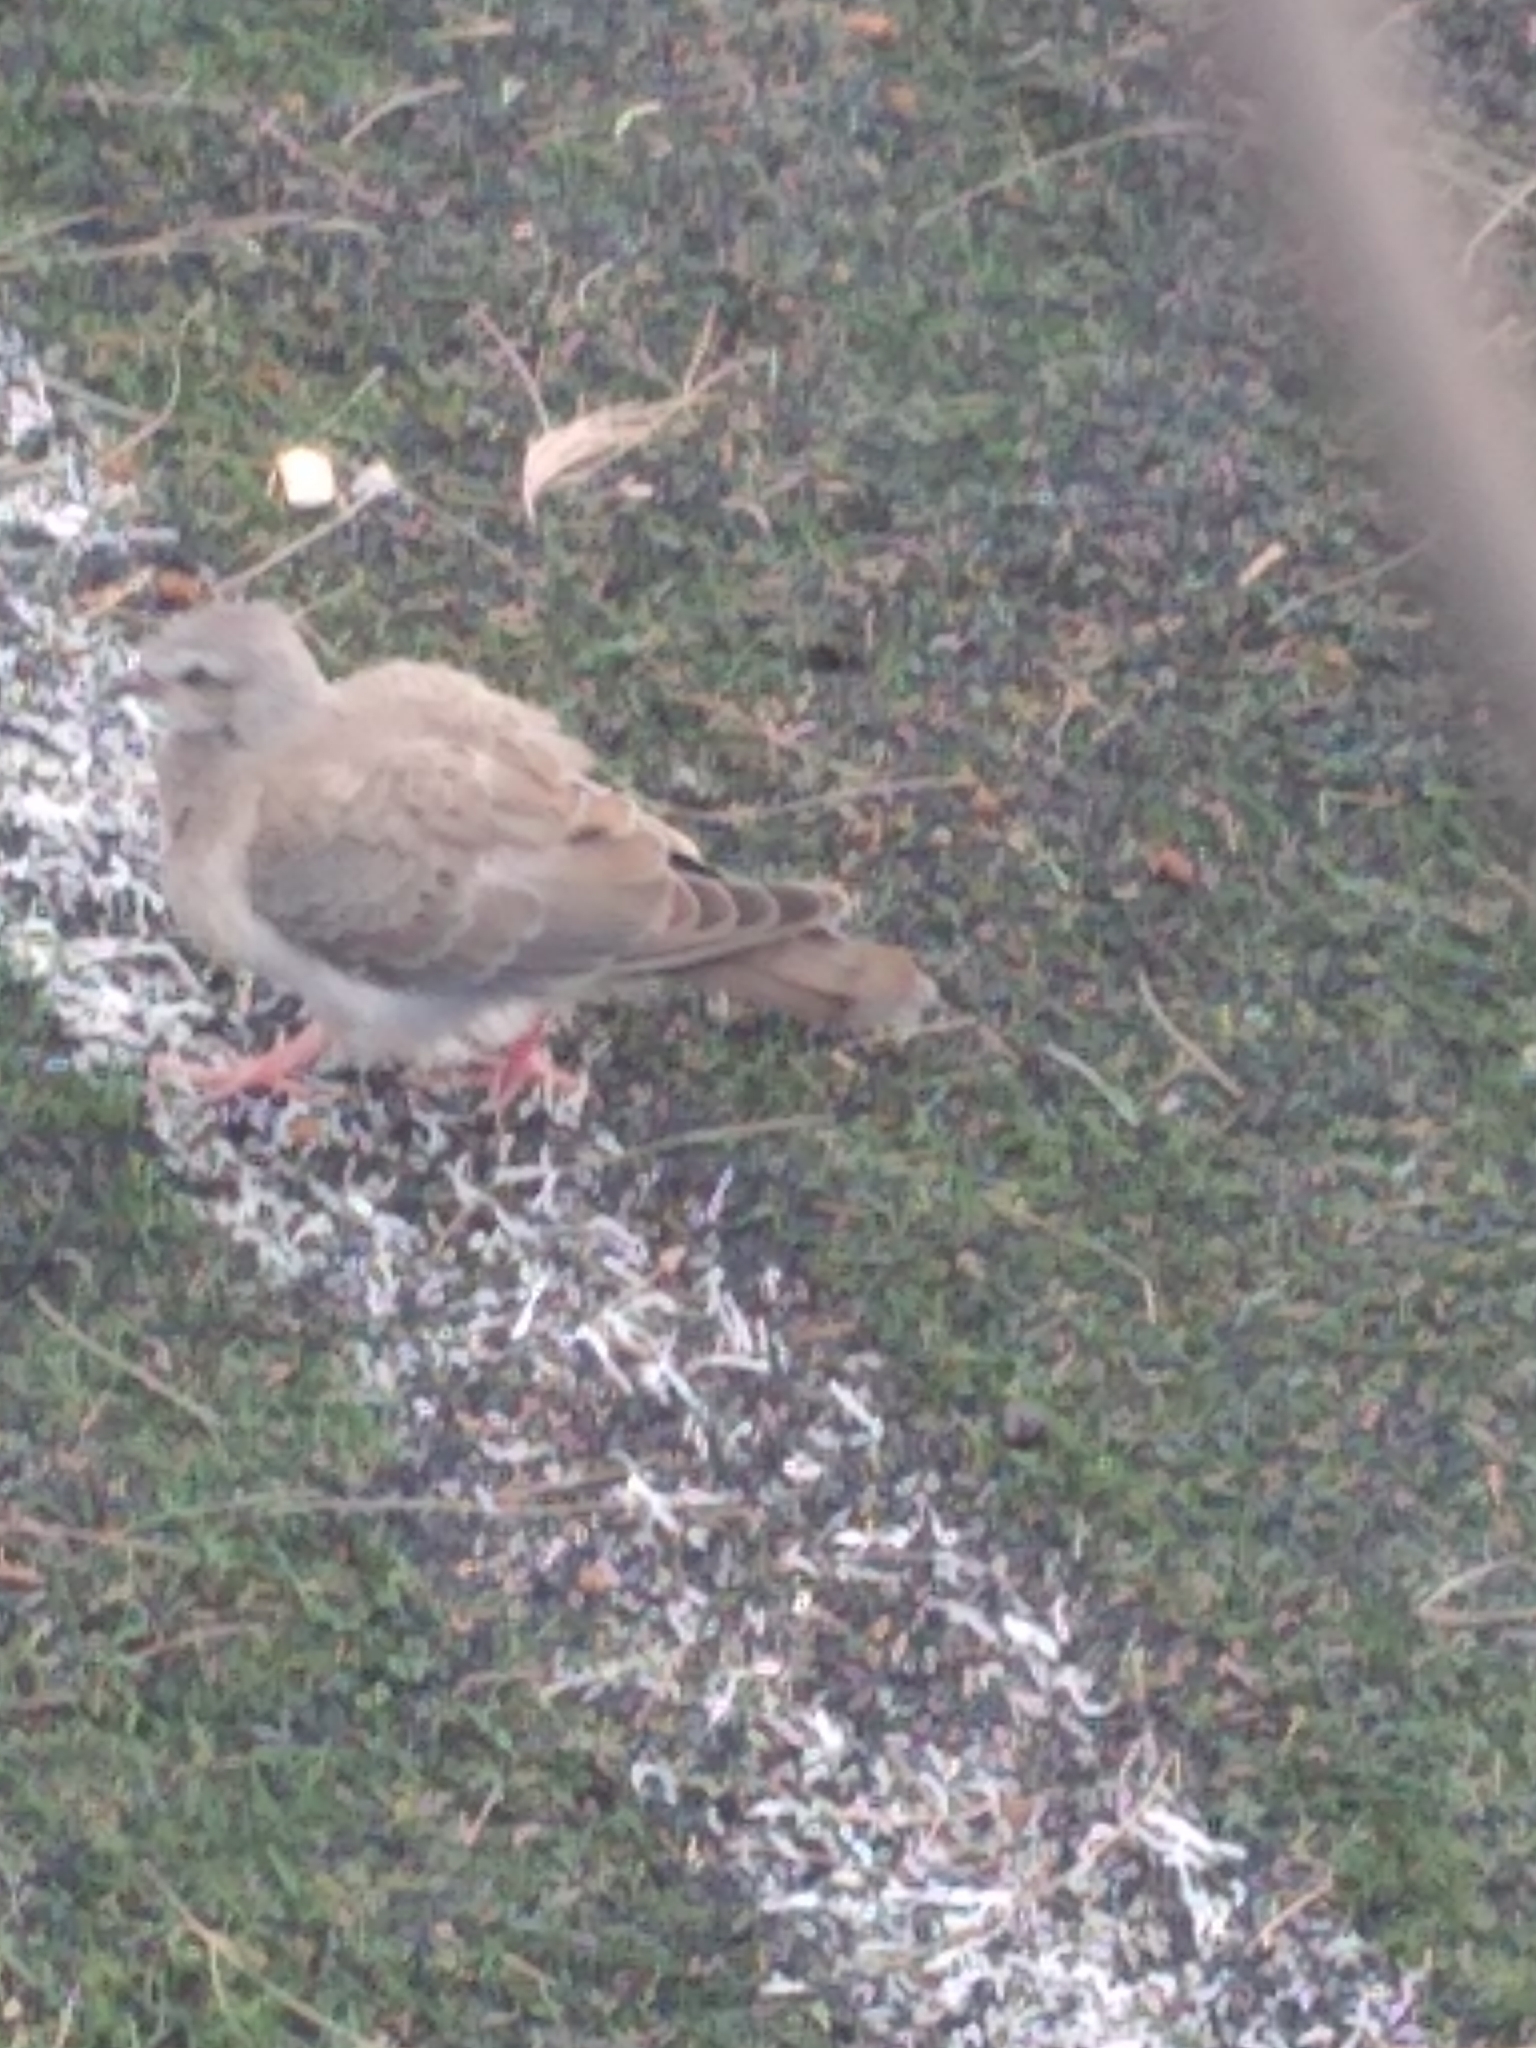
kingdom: Animalia
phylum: Chordata
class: Aves
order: Columbiformes
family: Columbidae
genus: Zenaida
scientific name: Zenaida auriculata
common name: Eared dove
